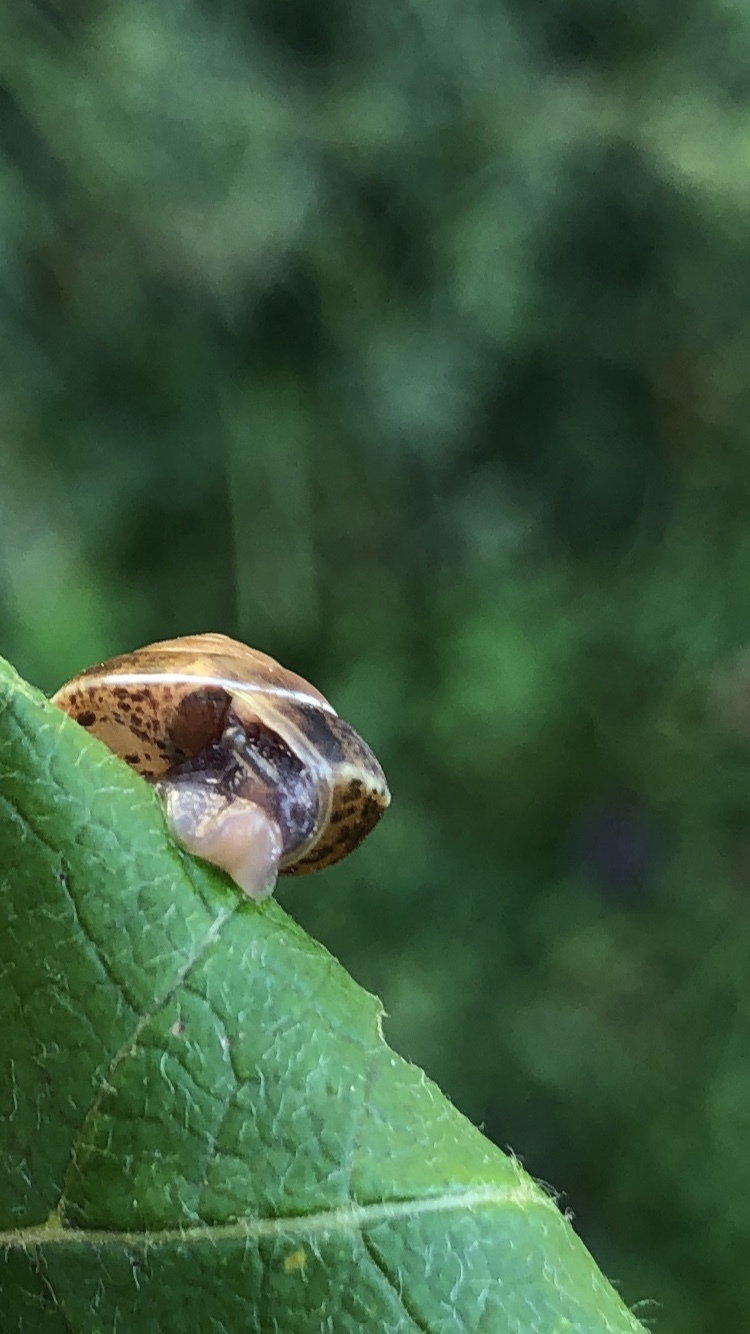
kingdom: Animalia
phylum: Mollusca
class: Gastropoda
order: Stylommatophora
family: Hygromiidae
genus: Hygromia
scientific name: Hygromia cinctella
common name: Girdled snail
